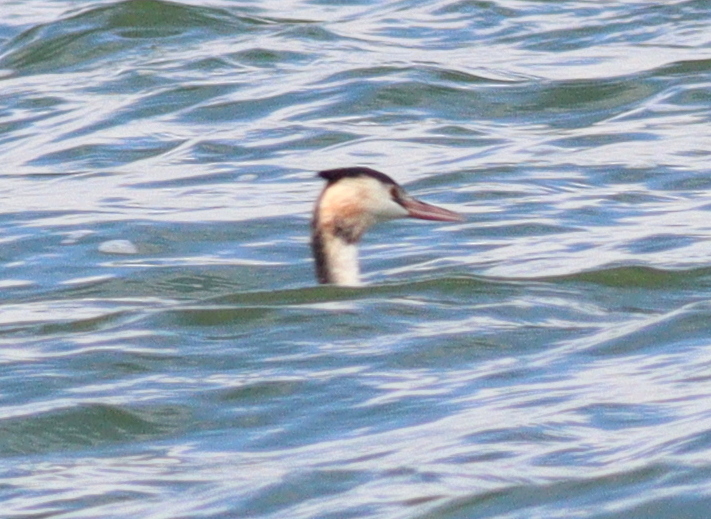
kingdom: Animalia
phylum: Chordata
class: Aves
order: Podicipediformes
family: Podicipedidae
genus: Podiceps
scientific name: Podiceps cristatus
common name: Great crested grebe
